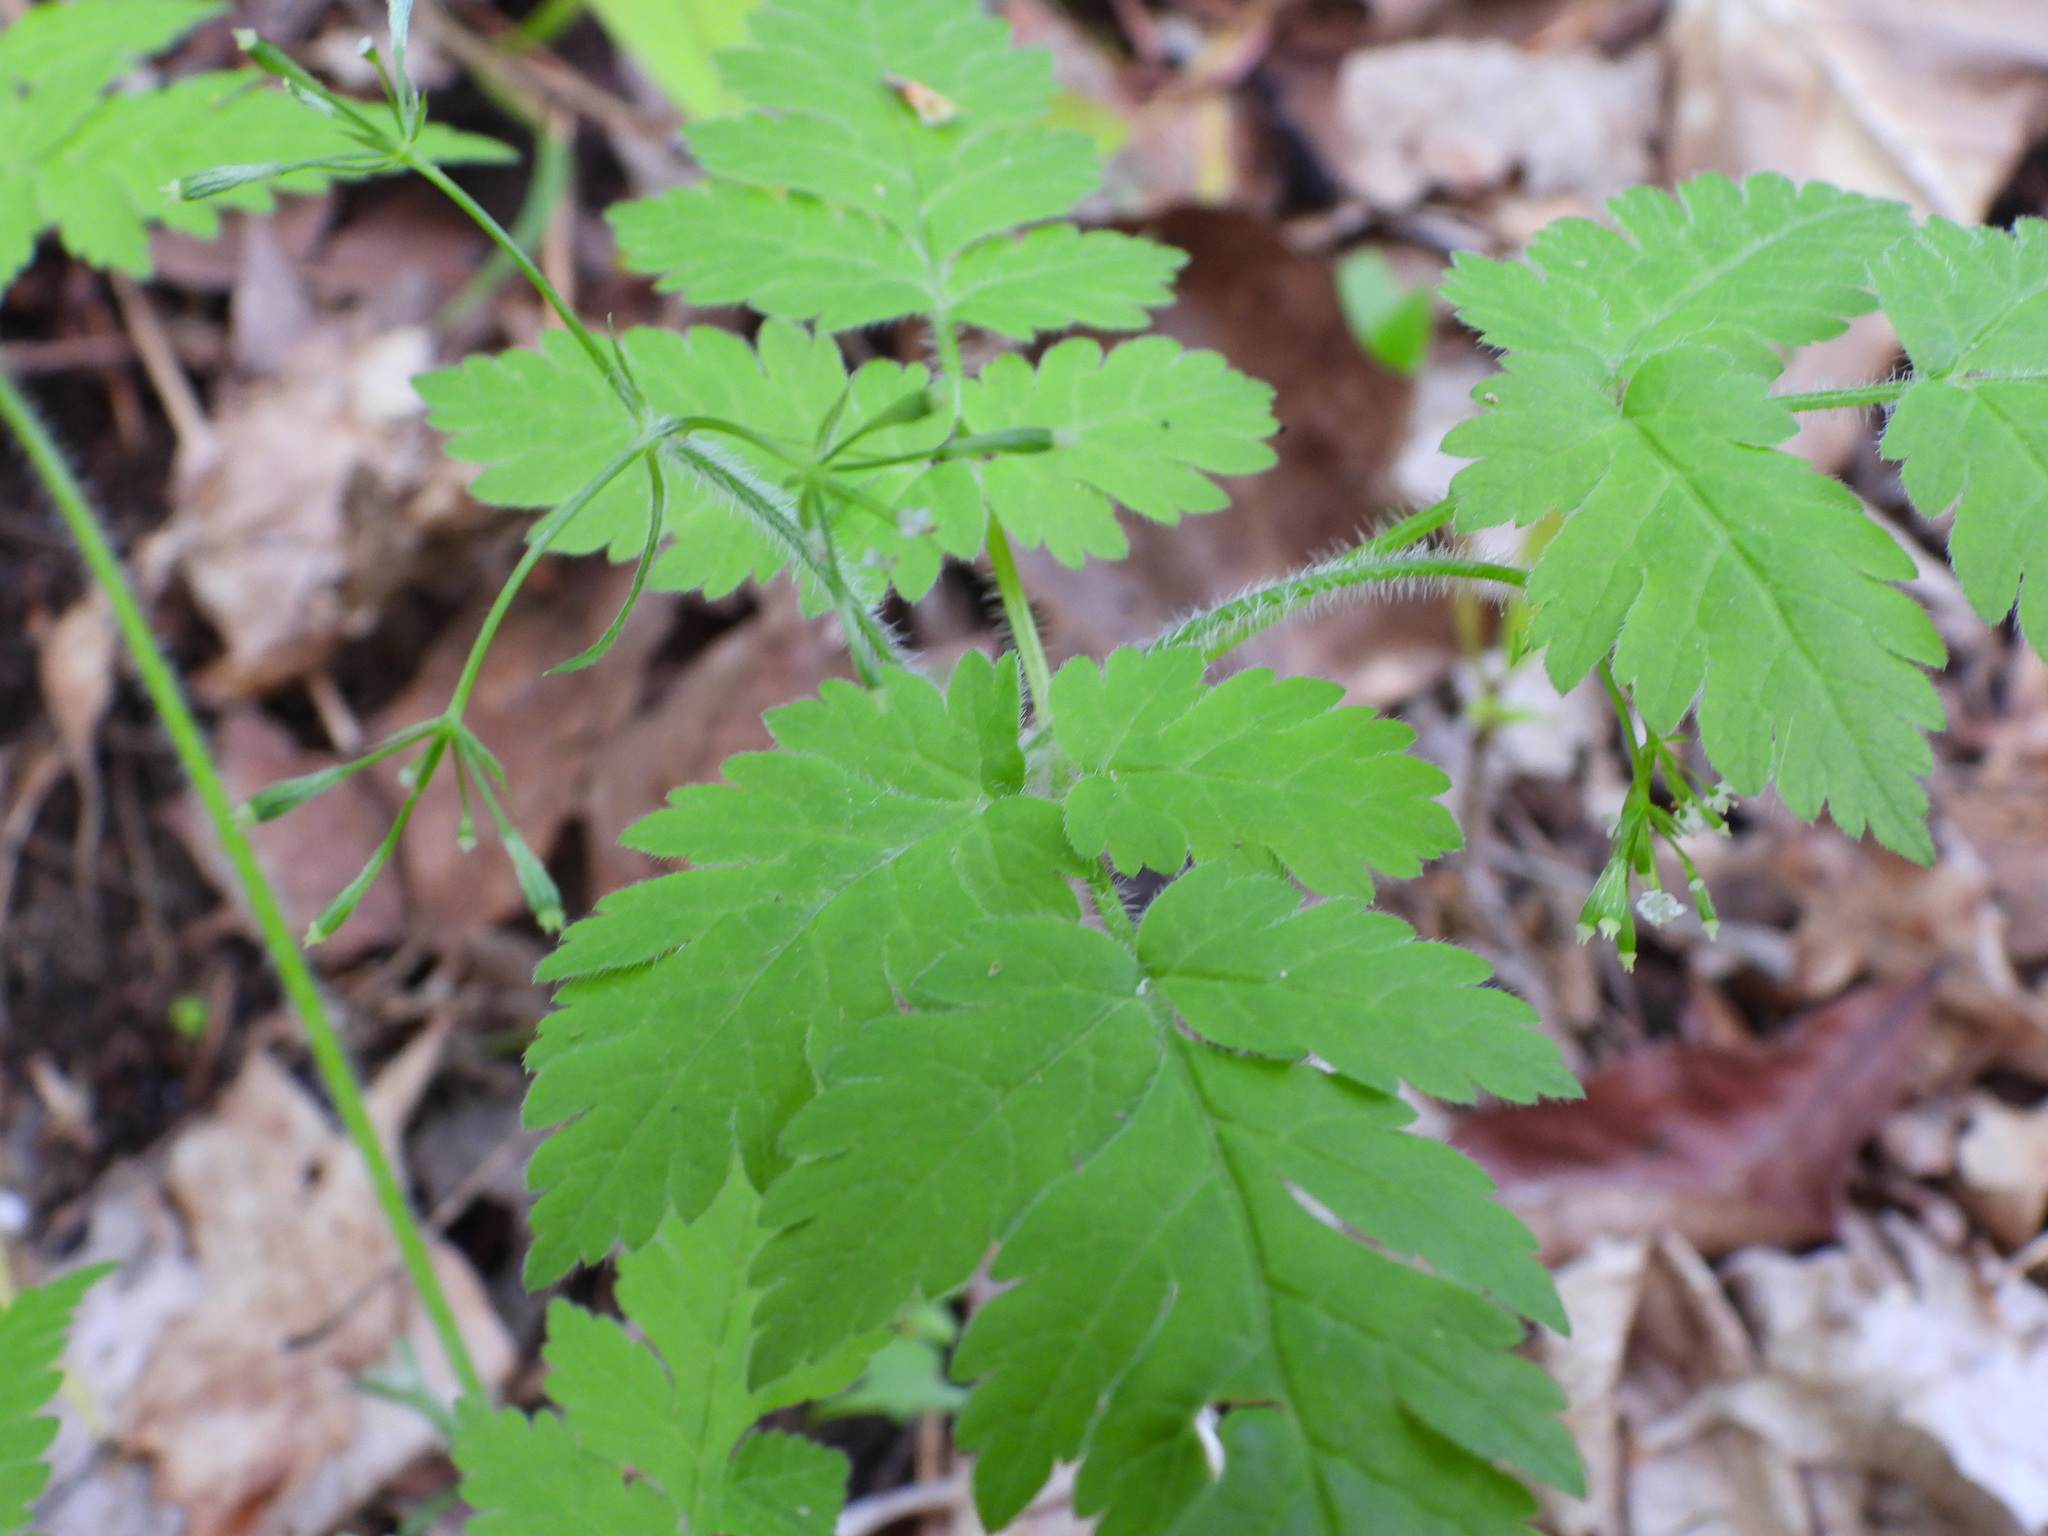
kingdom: Plantae
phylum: Tracheophyta
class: Magnoliopsida
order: Apiales
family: Apiaceae
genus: Osmorhiza
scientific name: Osmorhiza claytonii
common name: Hairy sweet cicely
